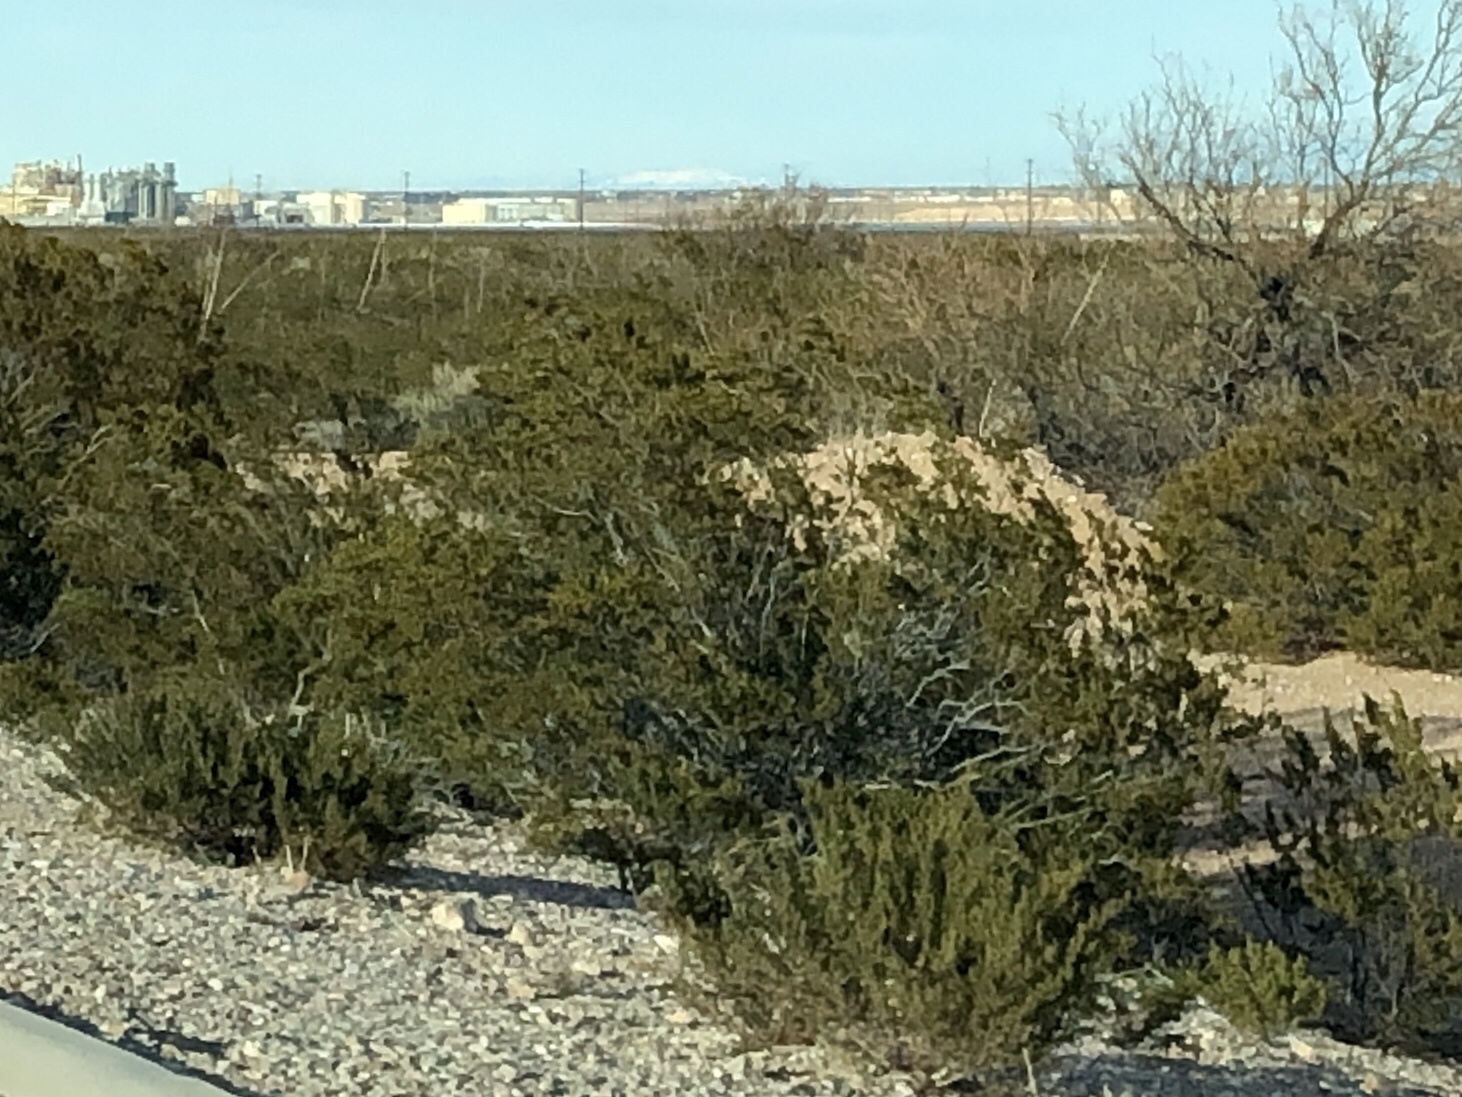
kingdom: Plantae
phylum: Tracheophyta
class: Magnoliopsida
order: Zygophyllales
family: Zygophyllaceae
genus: Larrea
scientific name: Larrea tridentata
